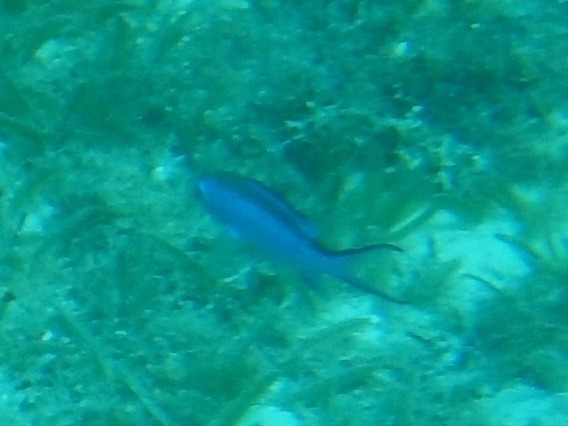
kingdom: Animalia
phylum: Chordata
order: Perciformes
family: Pomacentridae
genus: Chromis
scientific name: Chromis cyanea
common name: Blue chromis
